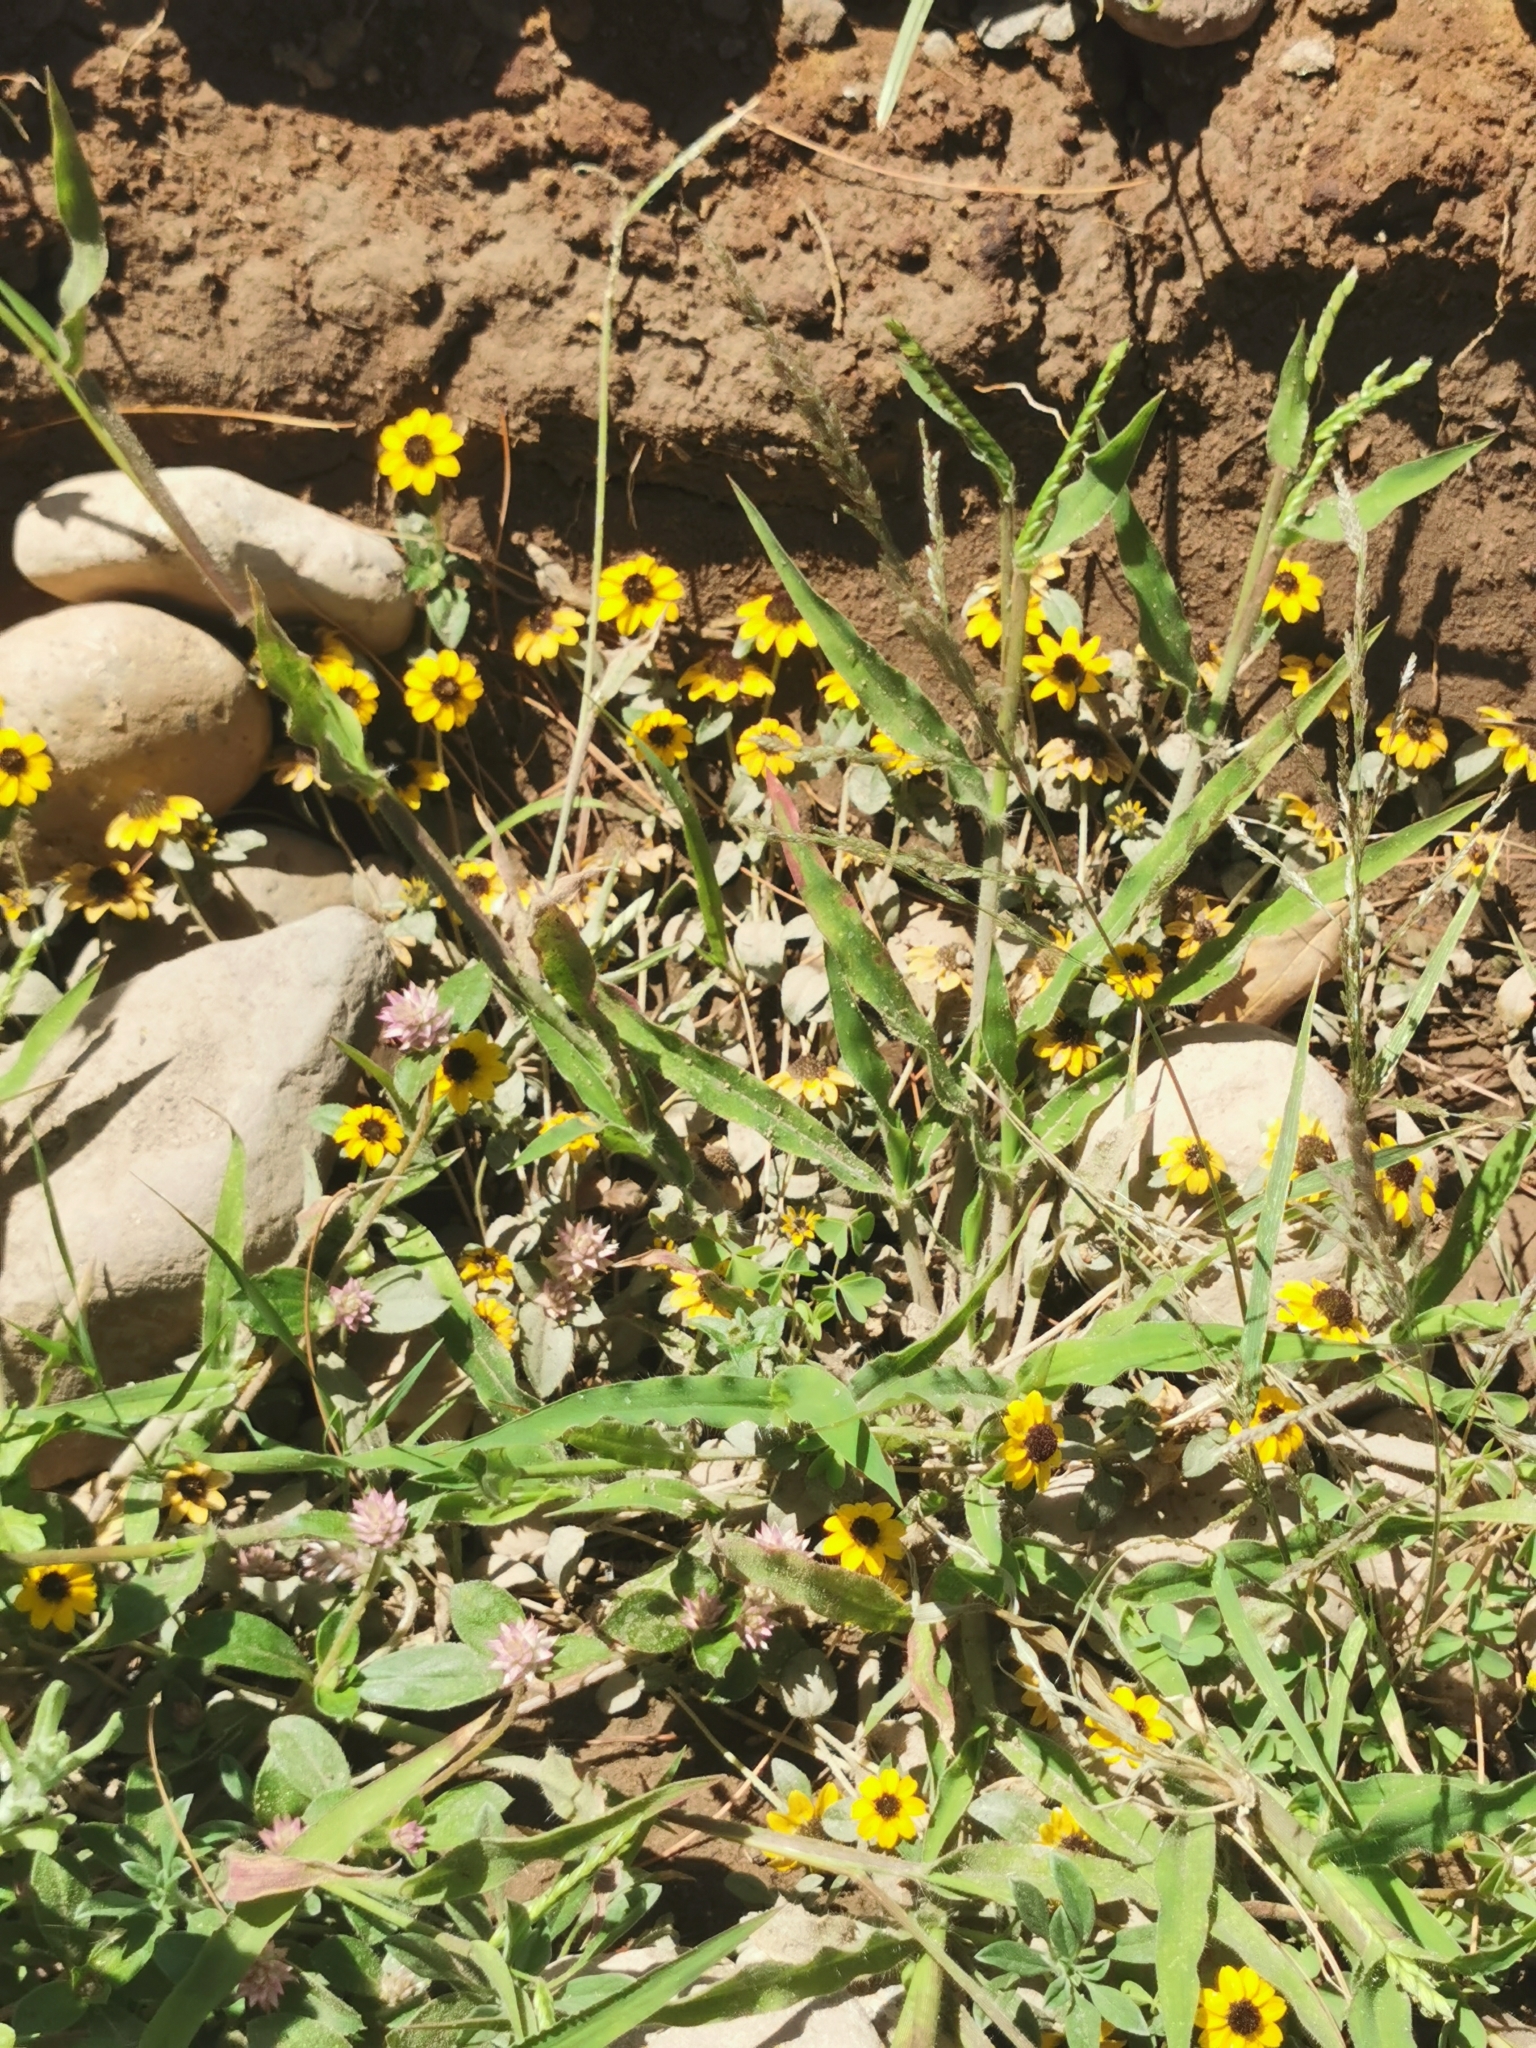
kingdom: Plantae
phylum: Tracheophyta
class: Magnoliopsida
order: Asterales
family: Asteraceae
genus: Sanvitalia
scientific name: Sanvitalia procumbens
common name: Mexican creeping zinnia
